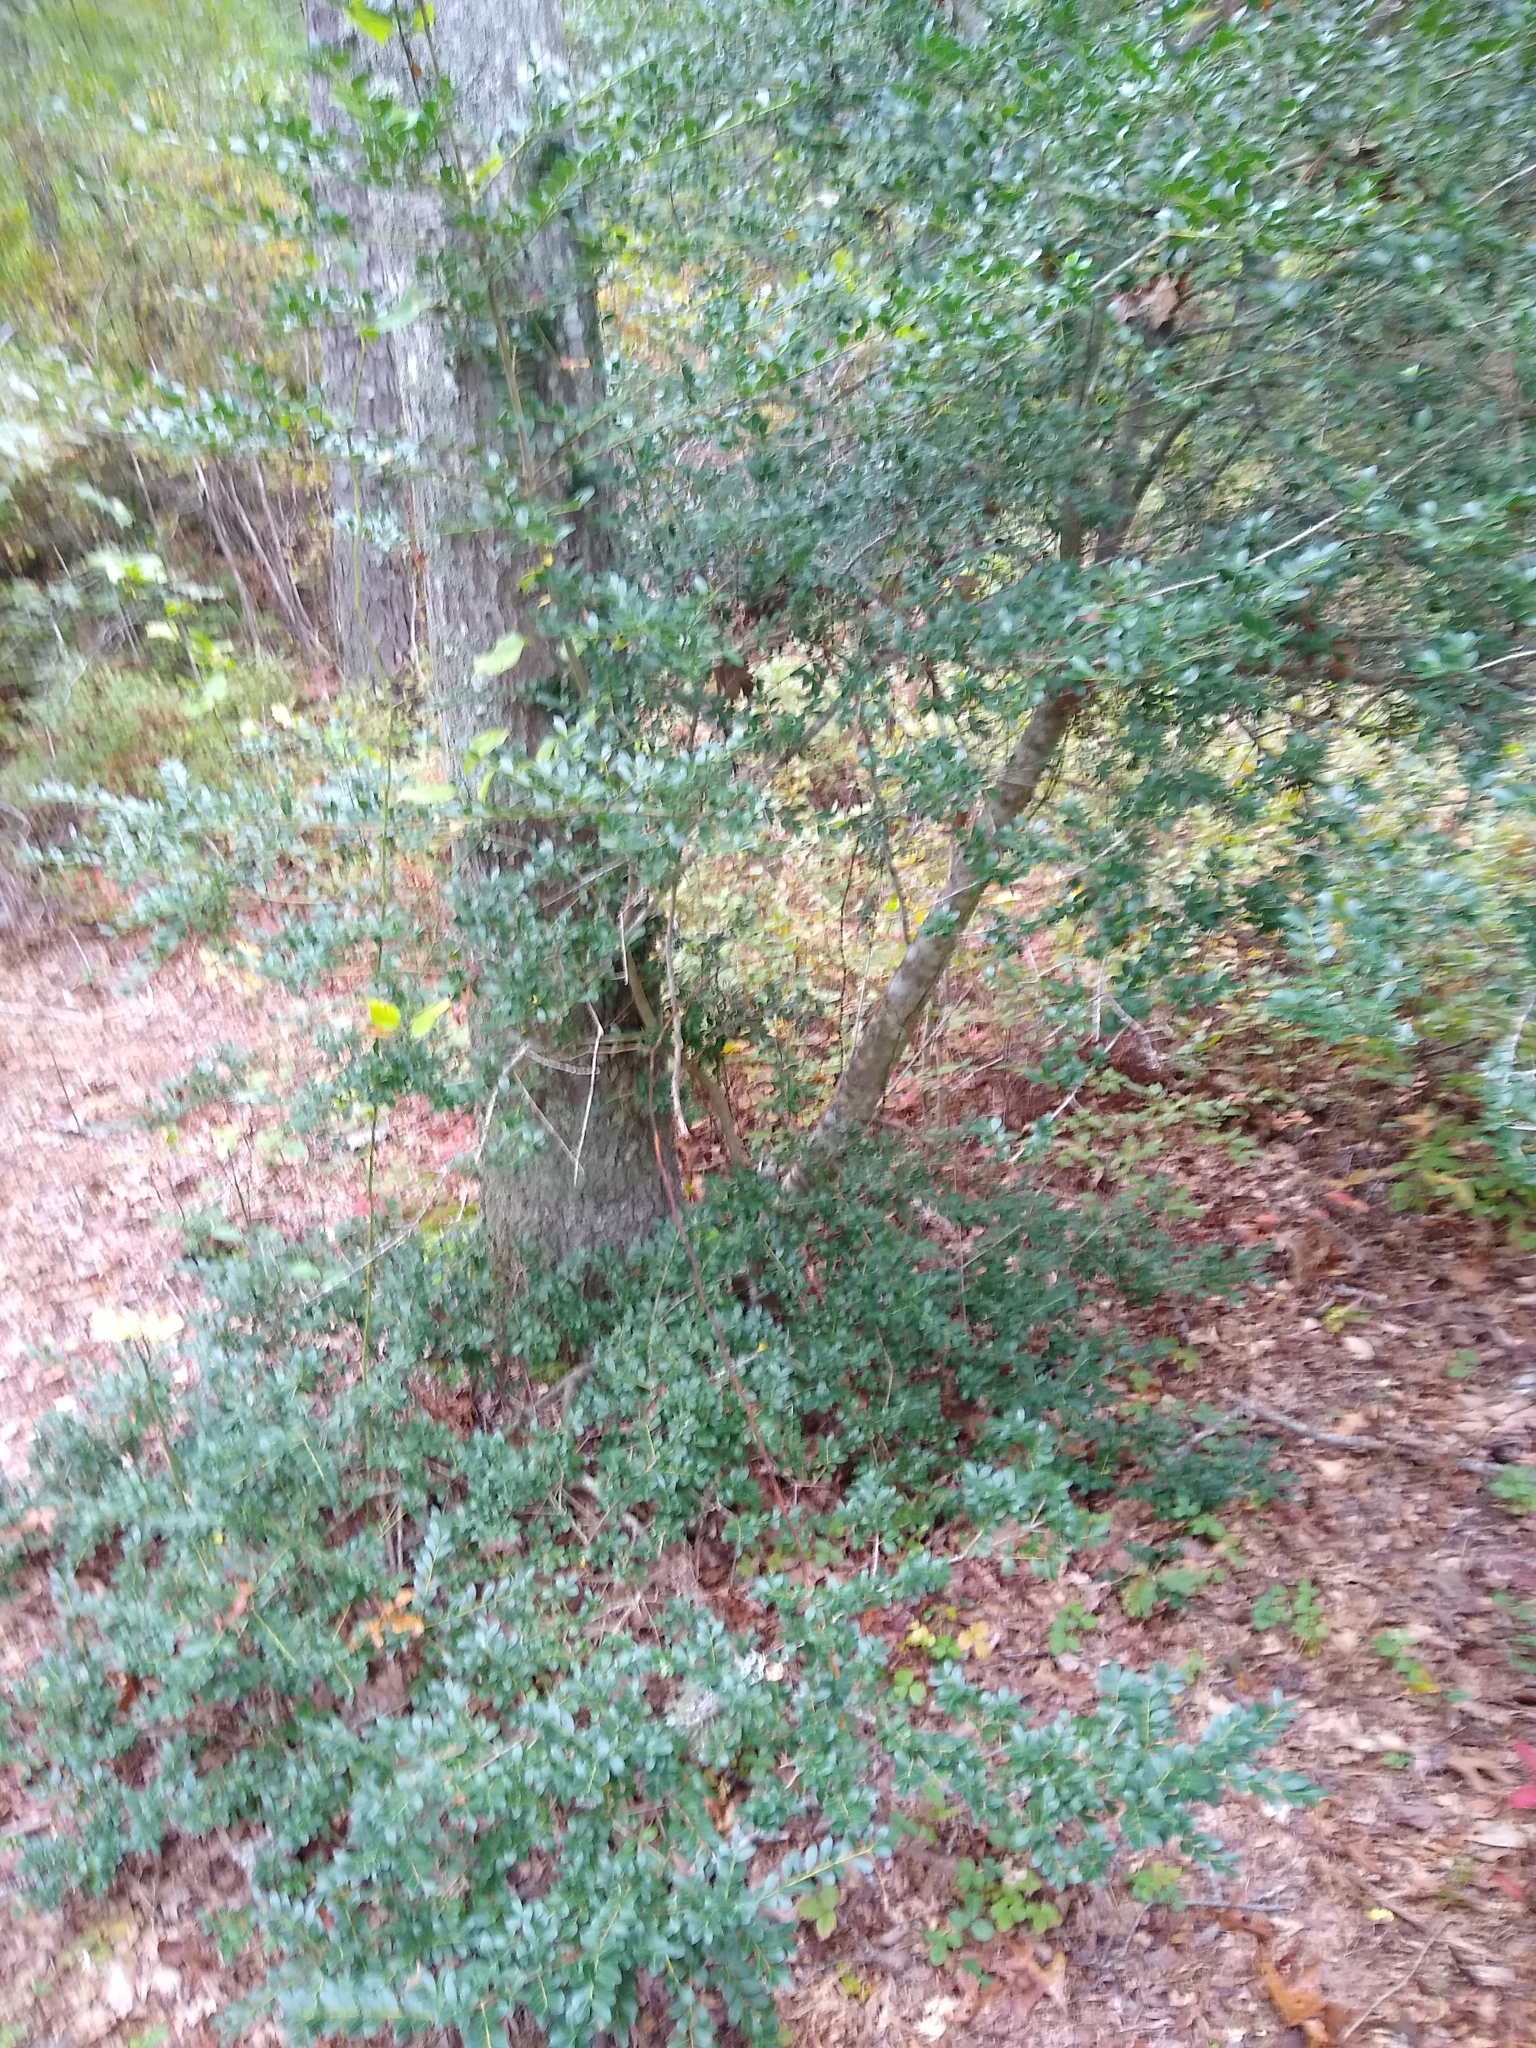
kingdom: Plantae
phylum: Tracheophyta
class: Magnoliopsida
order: Aquifoliales
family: Aquifoliaceae
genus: Ilex
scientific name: Ilex crenata
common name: Japanese holly
